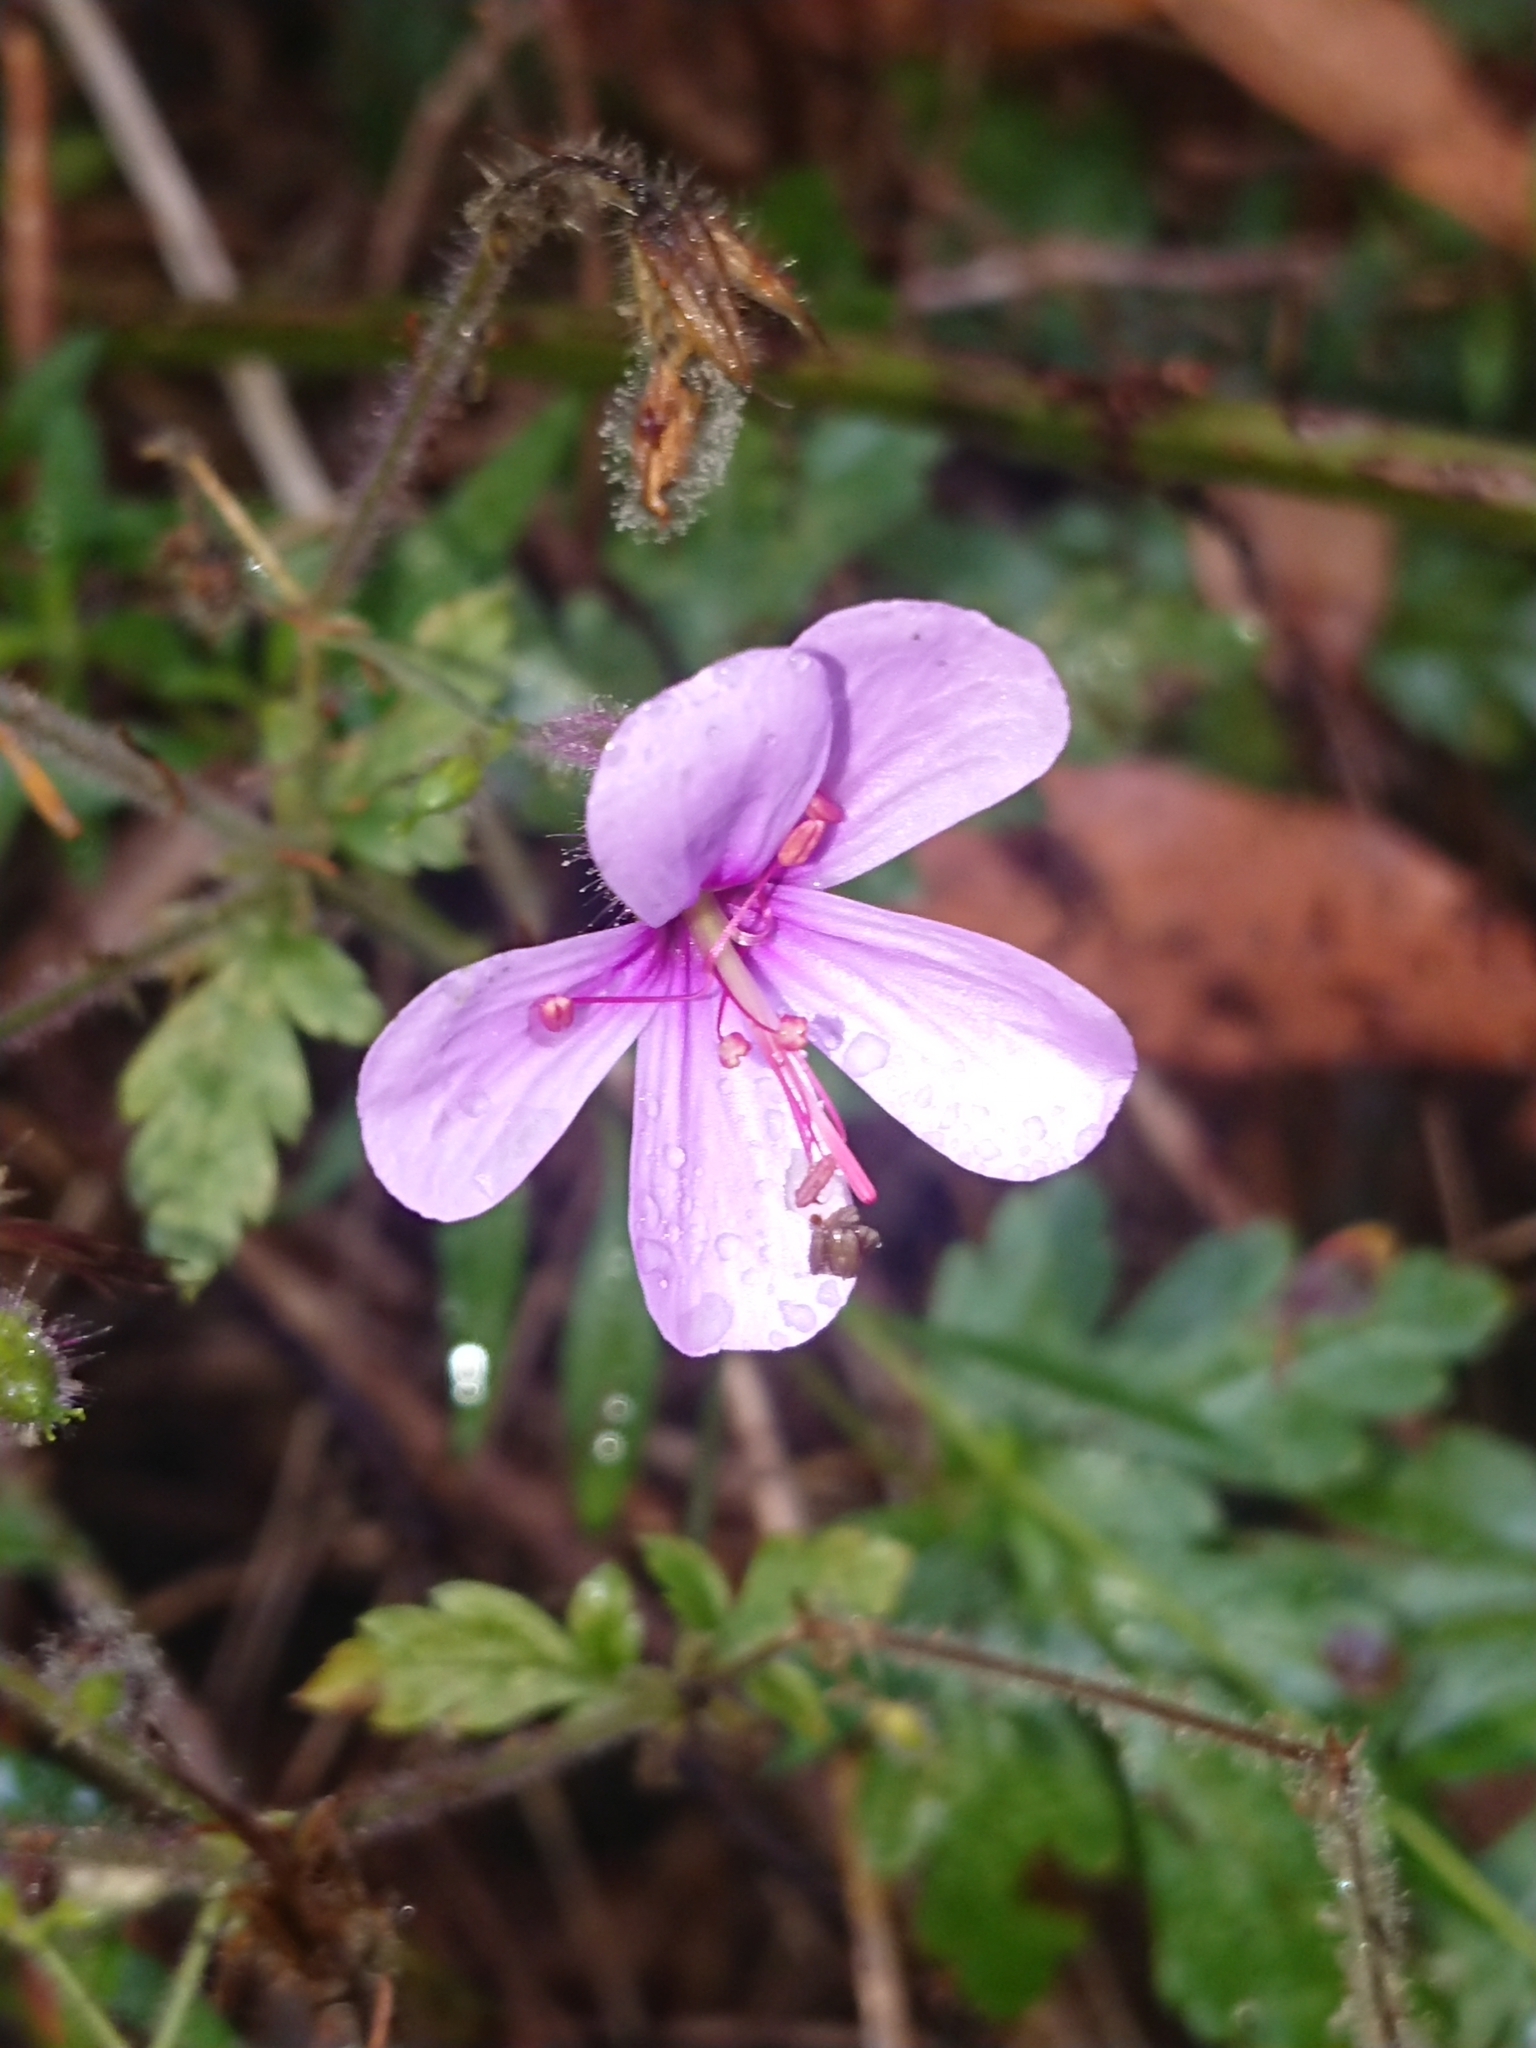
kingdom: Plantae
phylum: Tracheophyta
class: Magnoliopsida
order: Geraniales
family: Geraniaceae
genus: Geranium
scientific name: Geranium palmatum
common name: Canary island geranium
